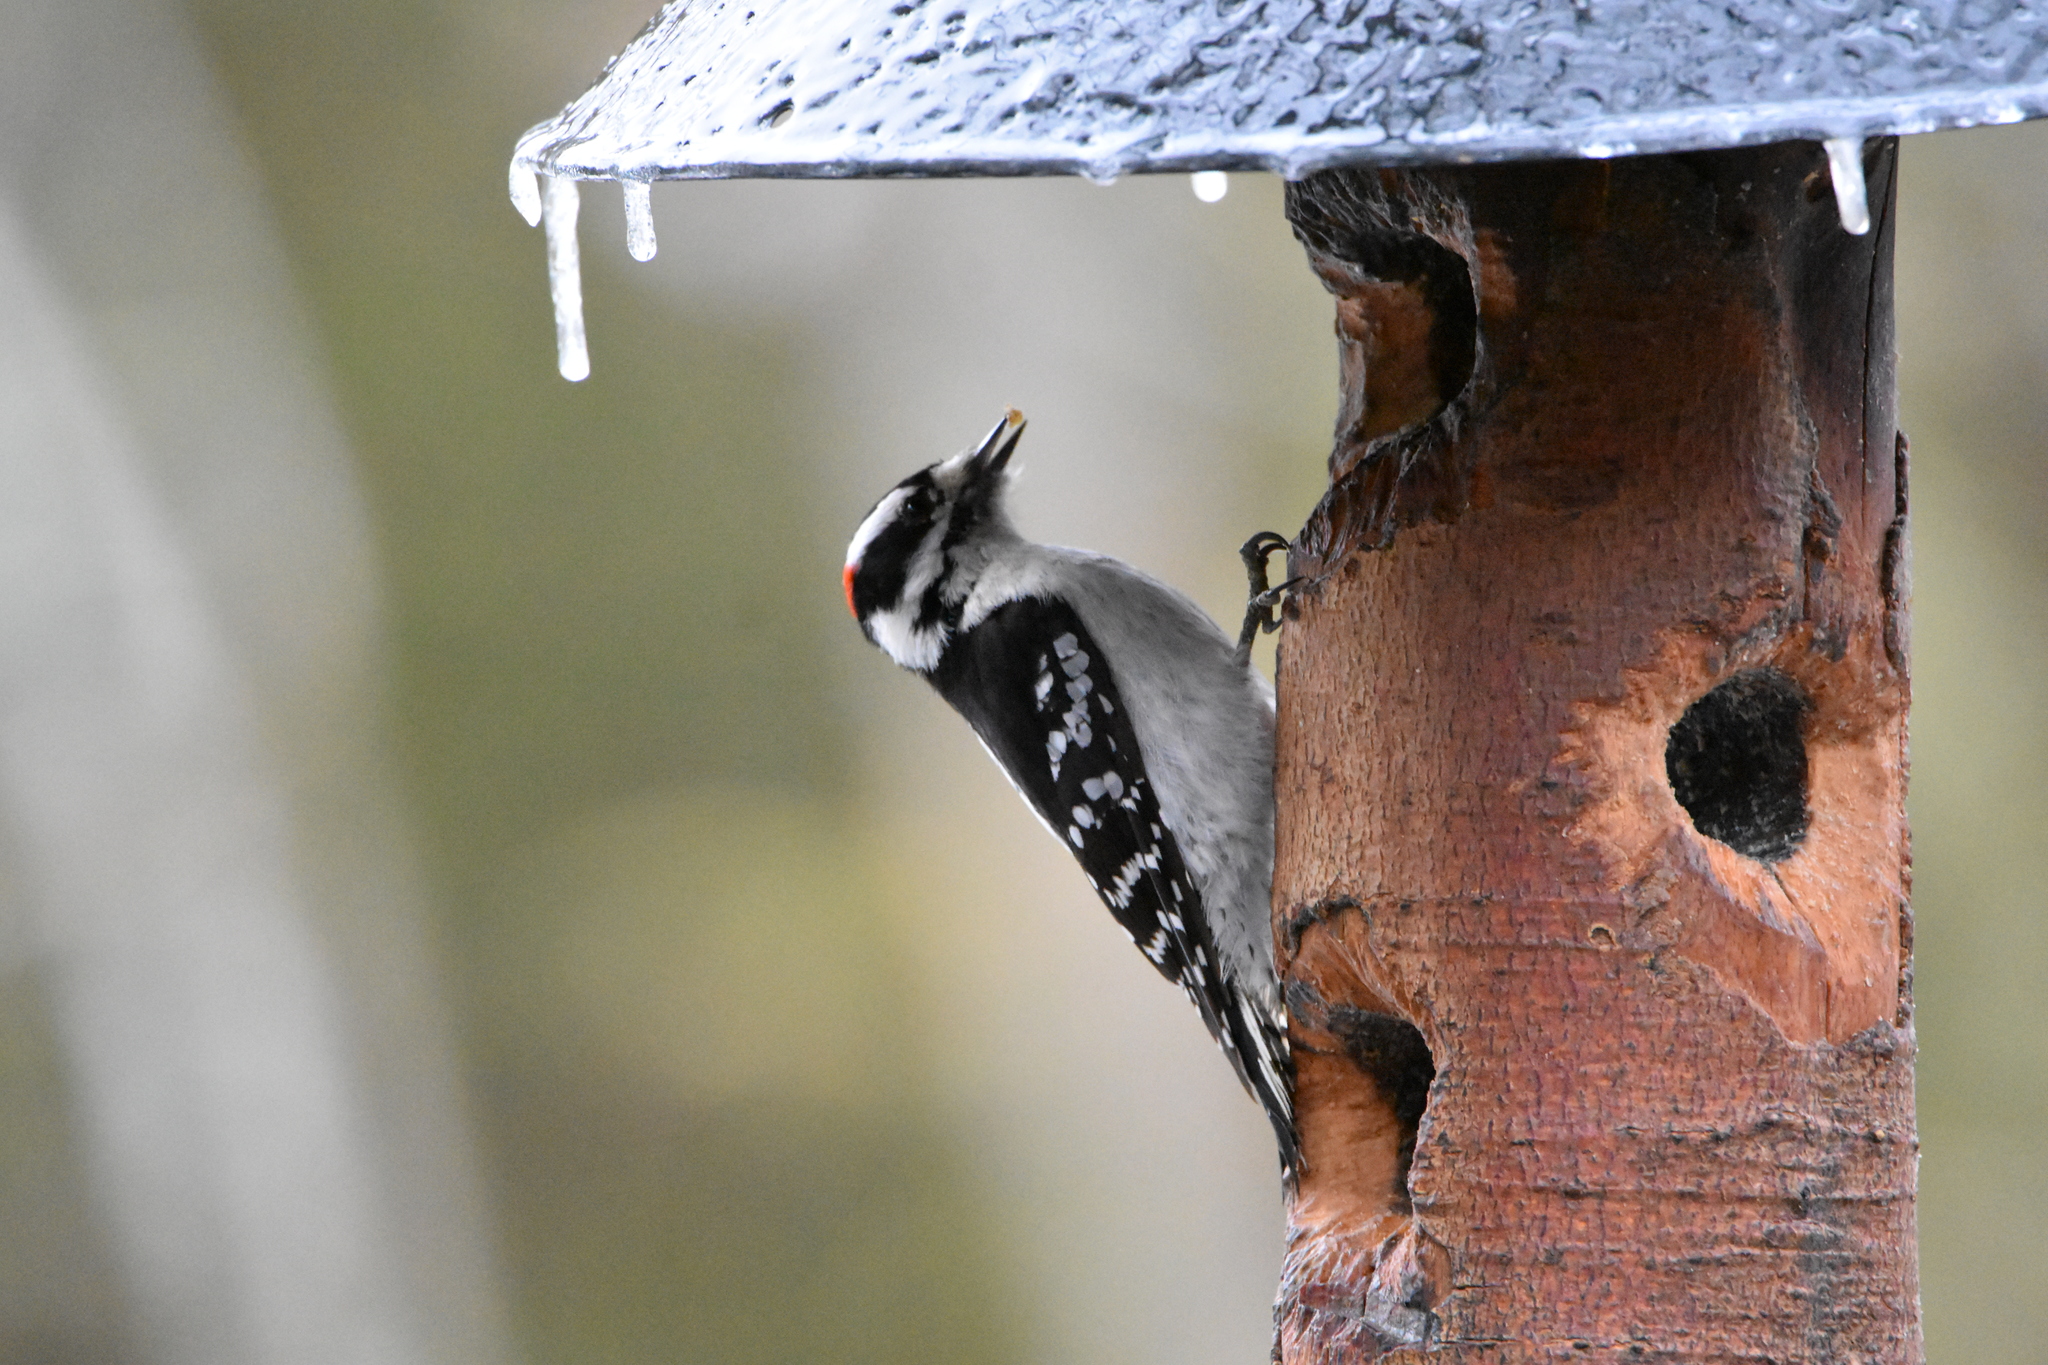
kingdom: Animalia
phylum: Chordata
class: Aves
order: Piciformes
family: Picidae
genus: Dryobates
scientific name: Dryobates pubescens
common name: Downy woodpecker
